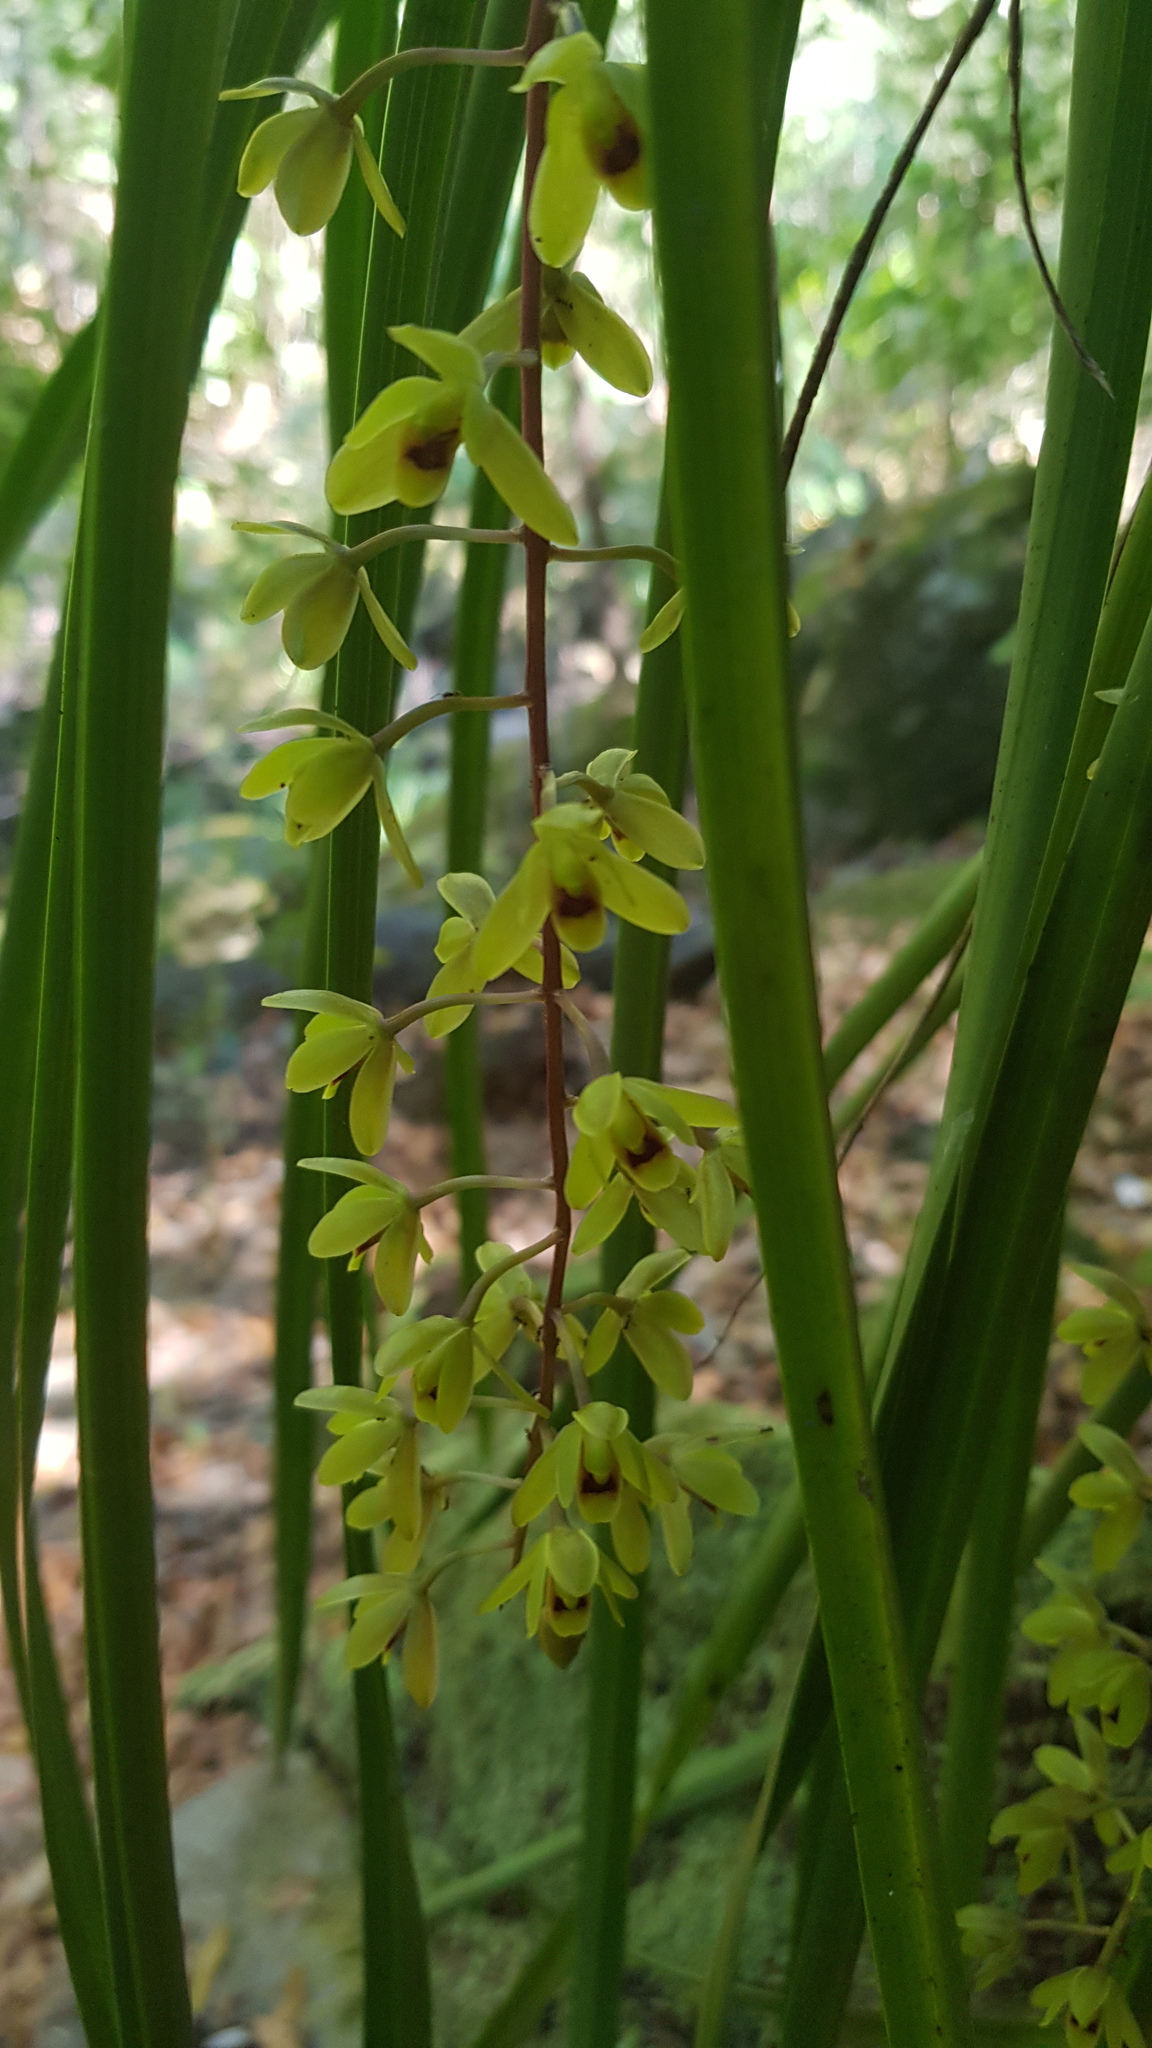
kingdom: Plantae
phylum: Tracheophyta
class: Liliopsida
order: Asparagales
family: Orchidaceae
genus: Cymbidium
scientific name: Cymbidium suave
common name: Snake orchid
